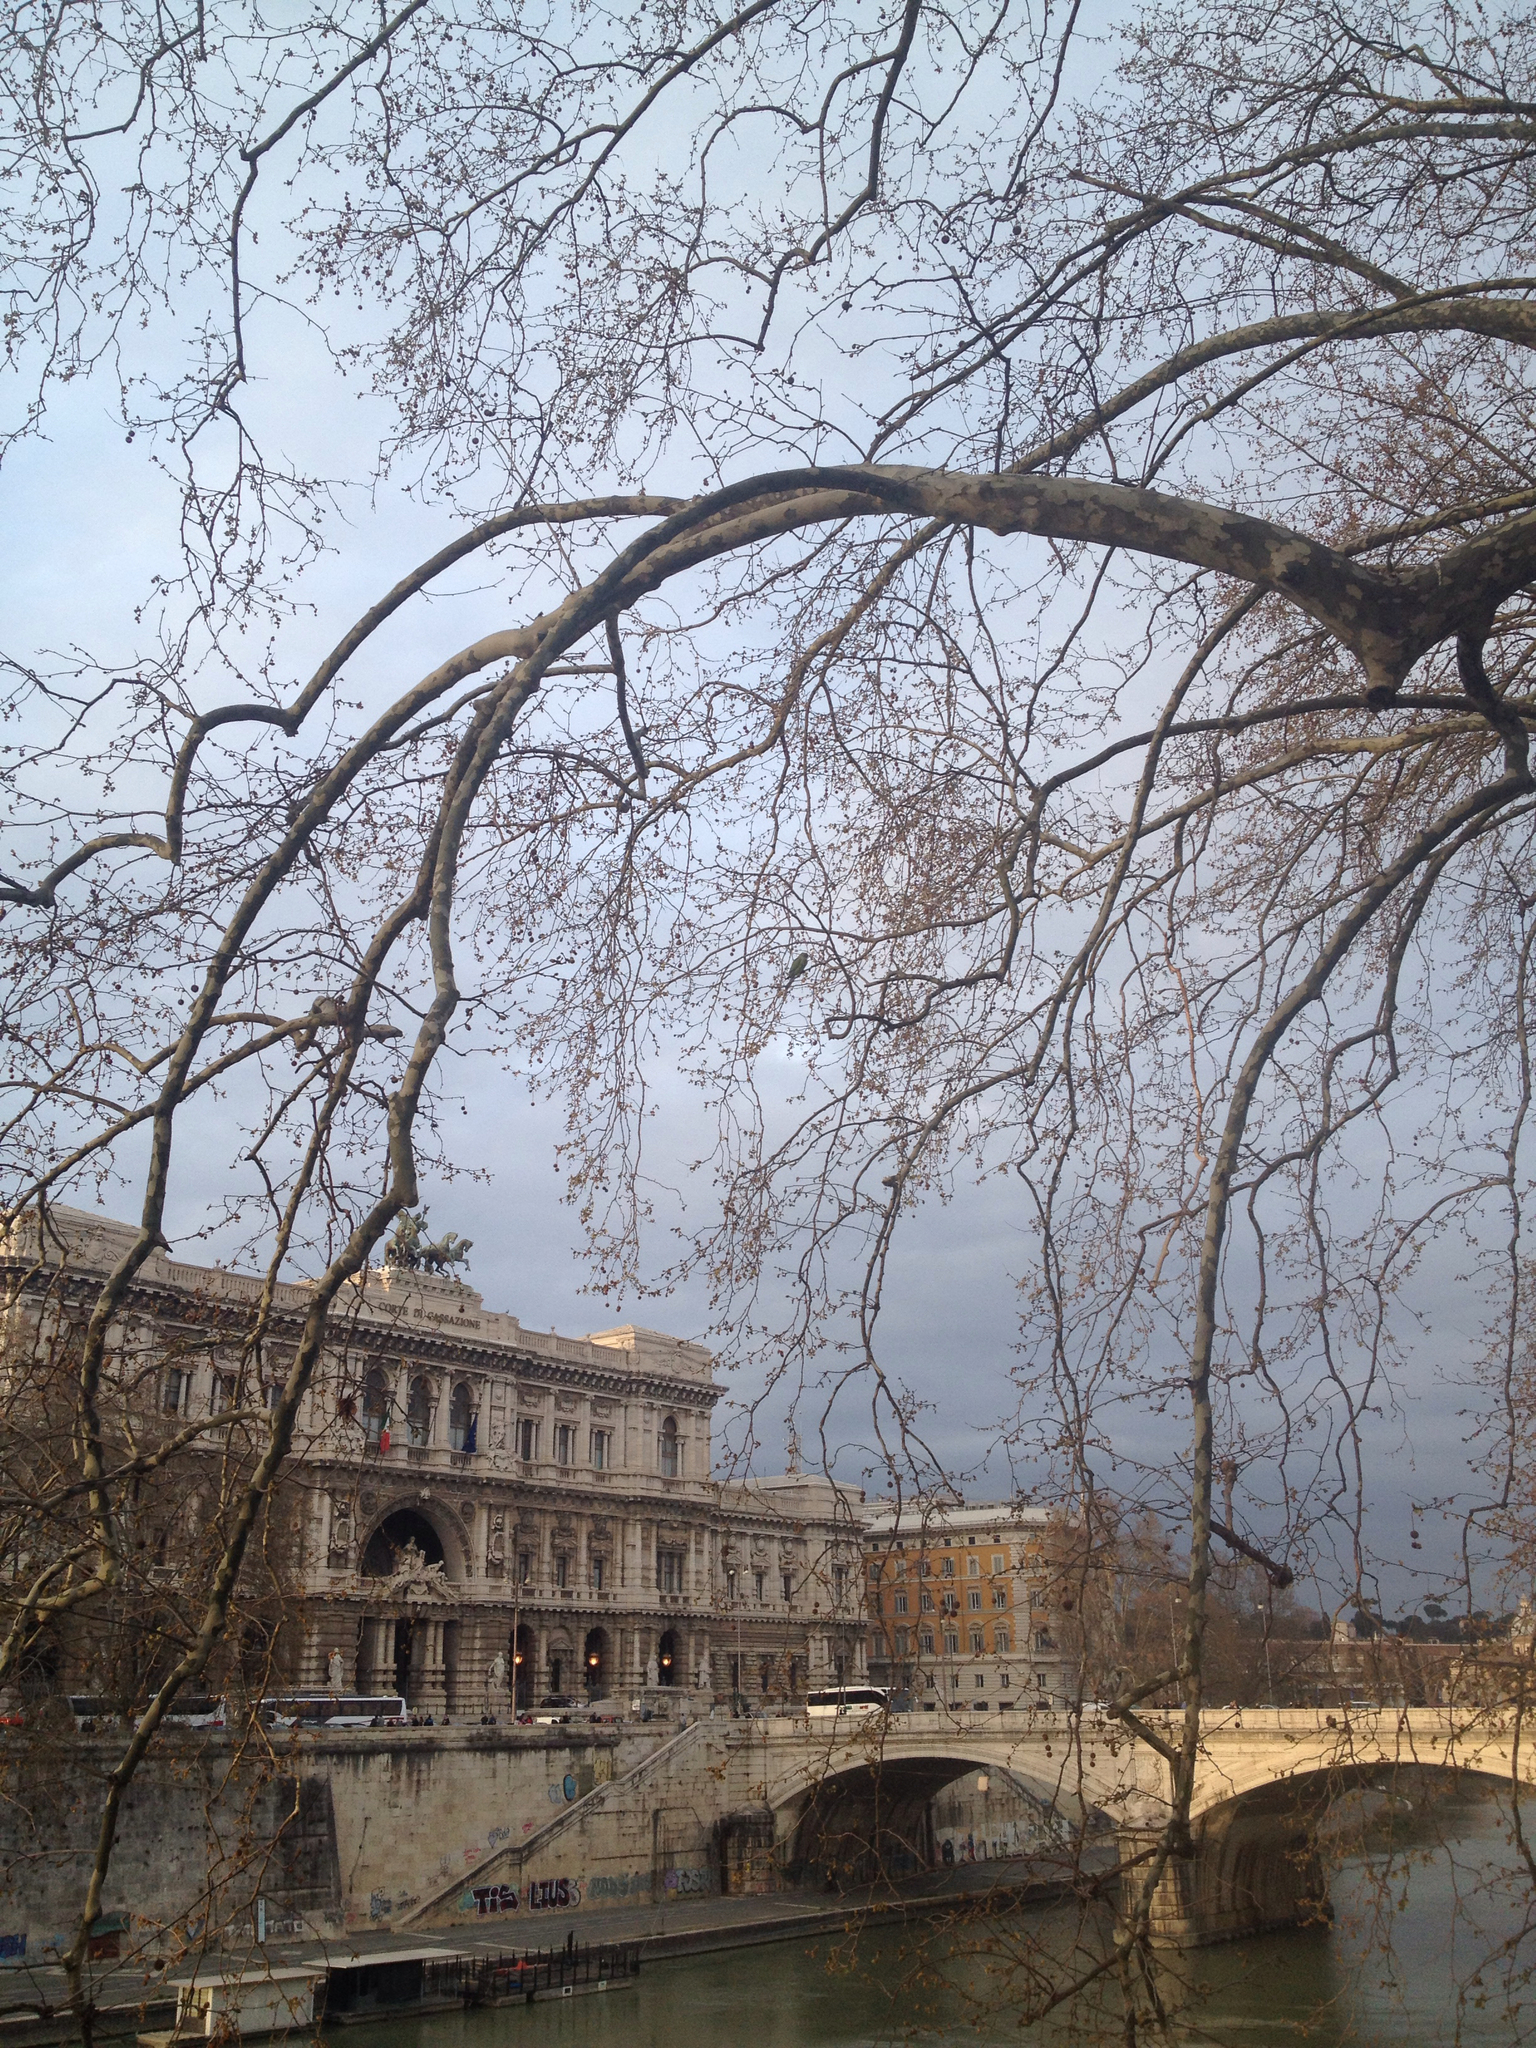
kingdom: Animalia
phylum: Chordata
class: Aves
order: Psittaciformes
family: Psittacidae
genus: Psittacula
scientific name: Psittacula krameri
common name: Rose-ringed parakeet
